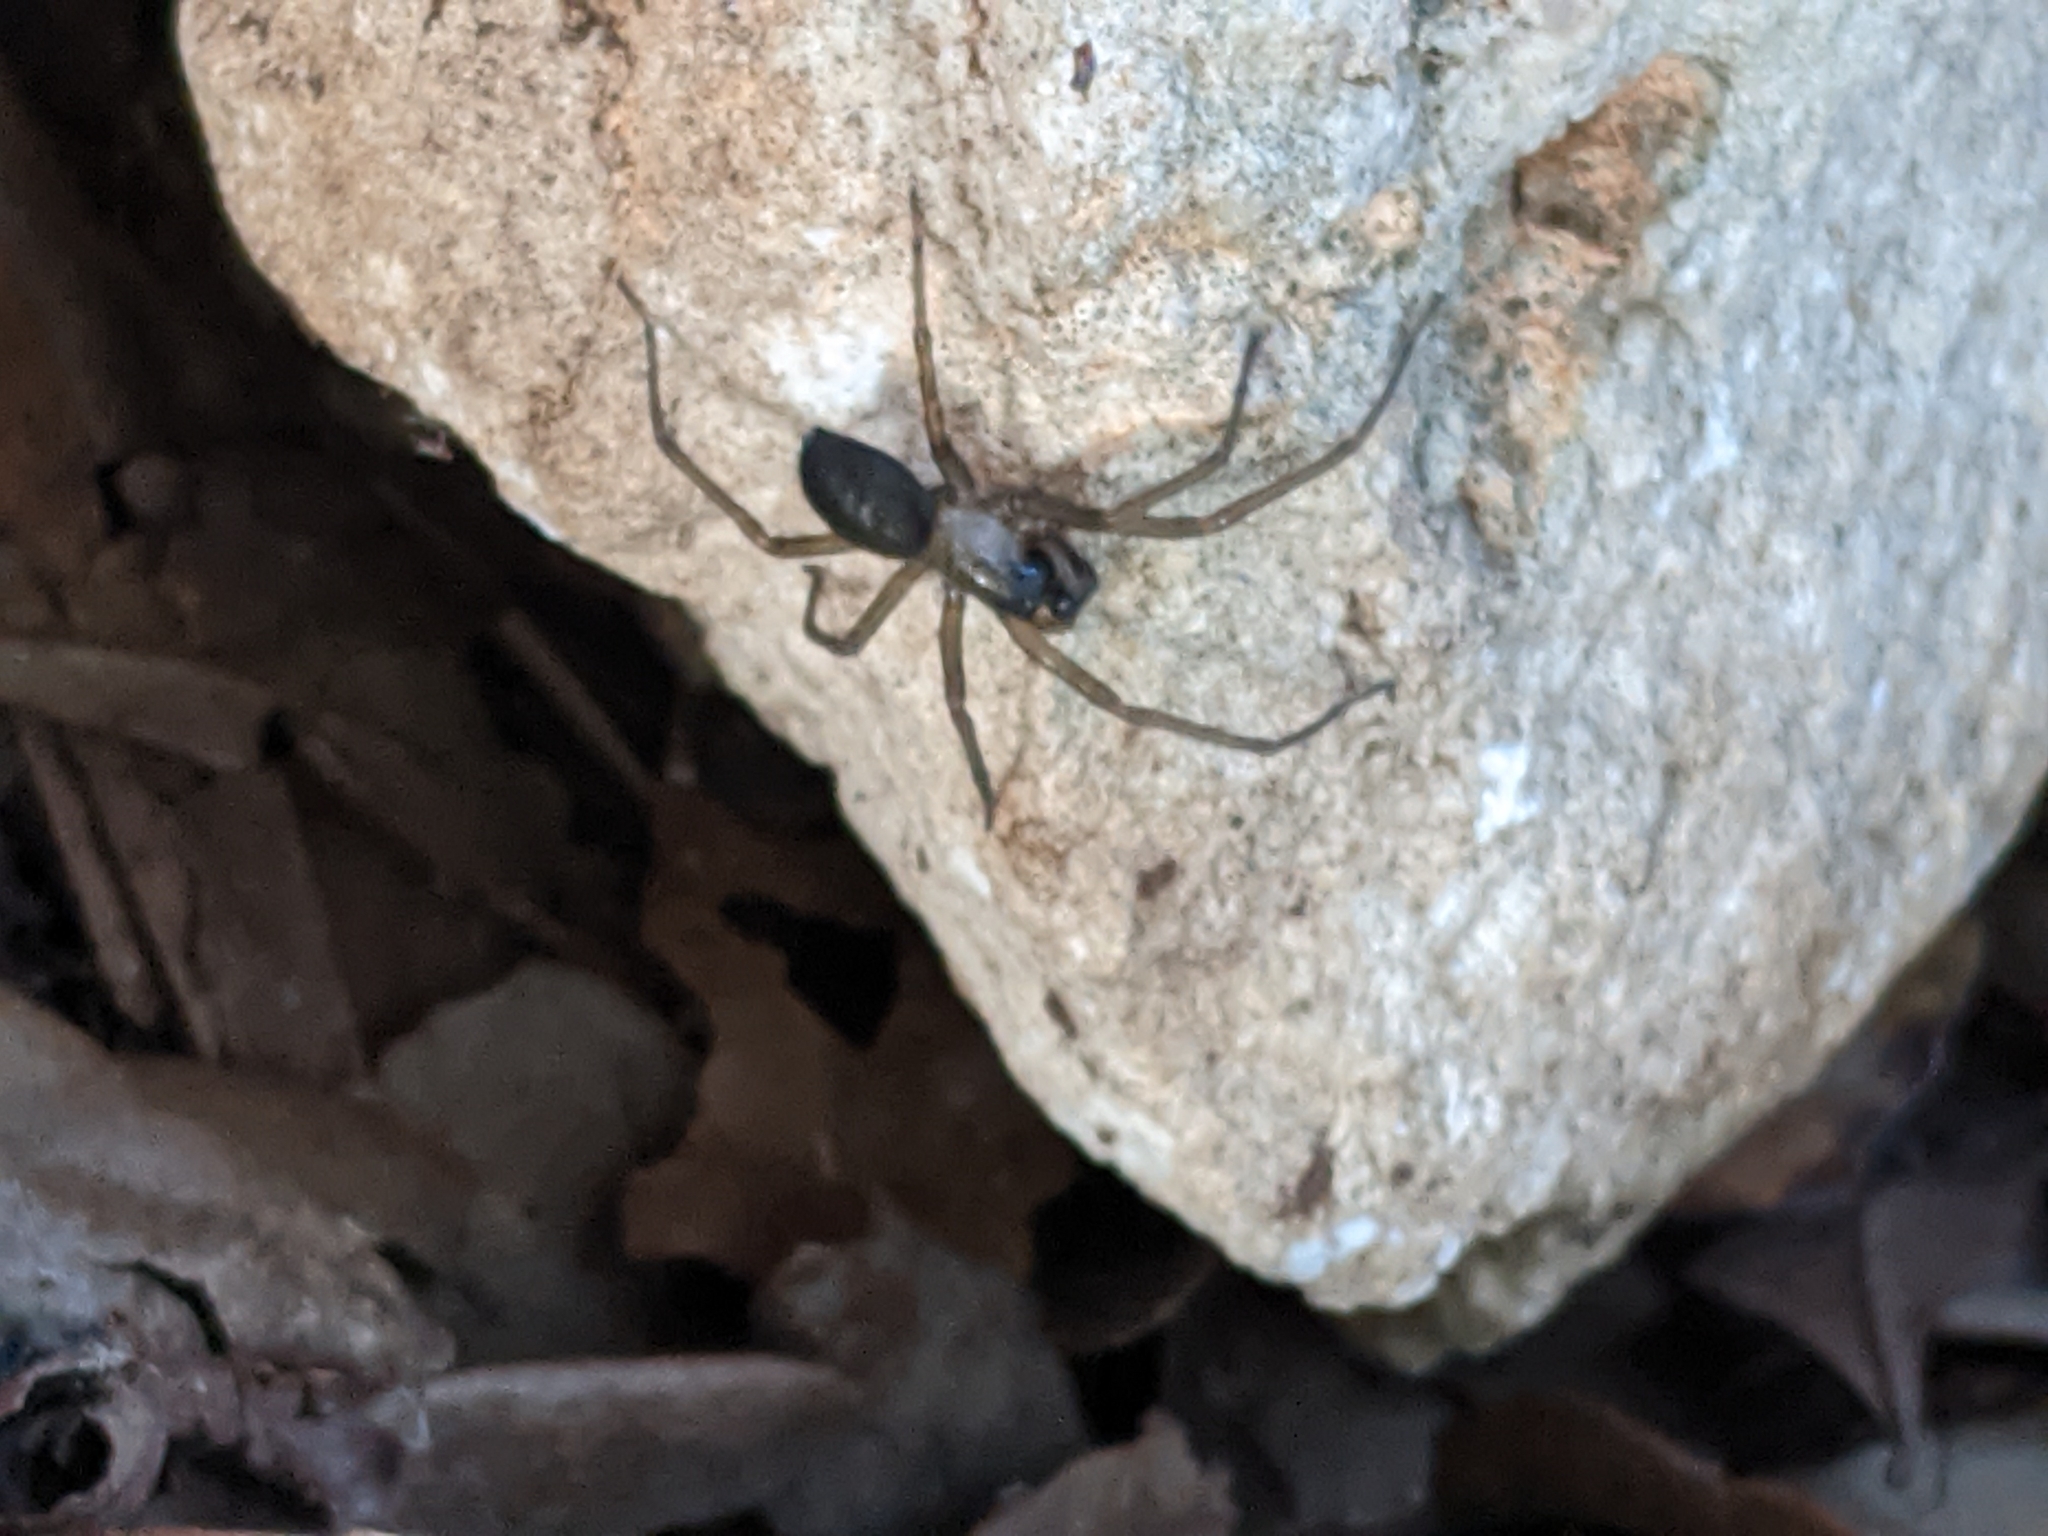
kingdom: Animalia
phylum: Arthropoda
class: Arachnida
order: Araneae
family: Desidae
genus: Metaltella
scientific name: Metaltella simoni
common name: Cribellate spider
